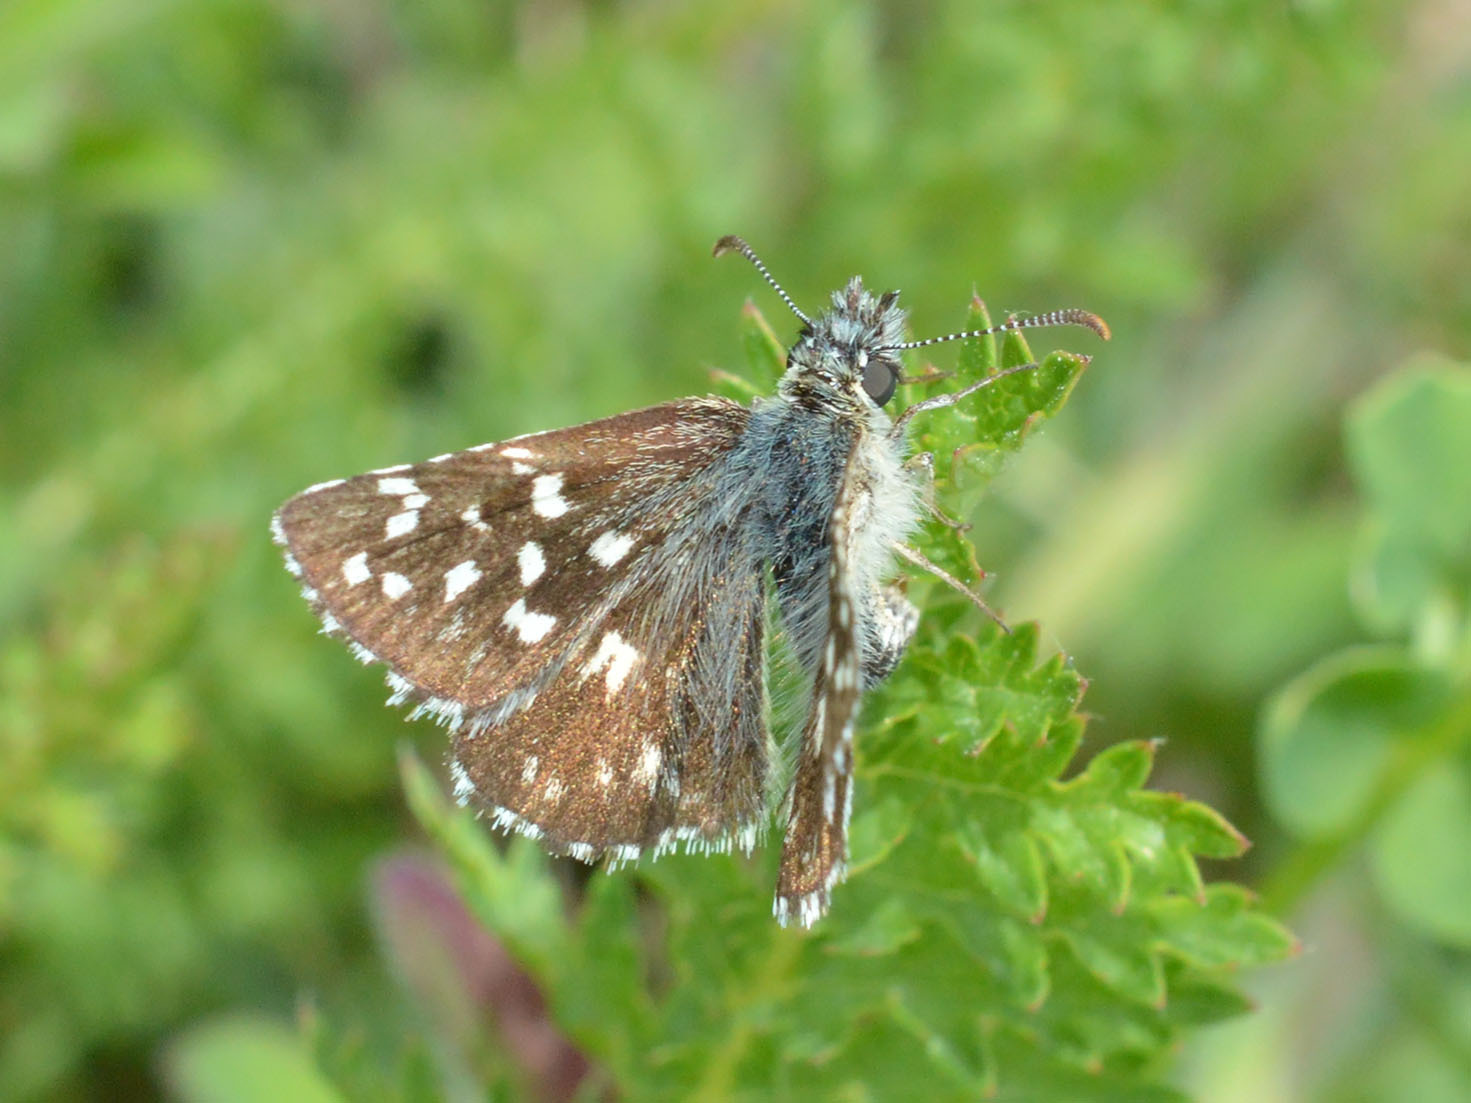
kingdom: Animalia
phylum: Arthropoda
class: Insecta
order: Lepidoptera
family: Hesperiidae
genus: Pyrgus
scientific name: Pyrgus malvae
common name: Grizzled skipper
